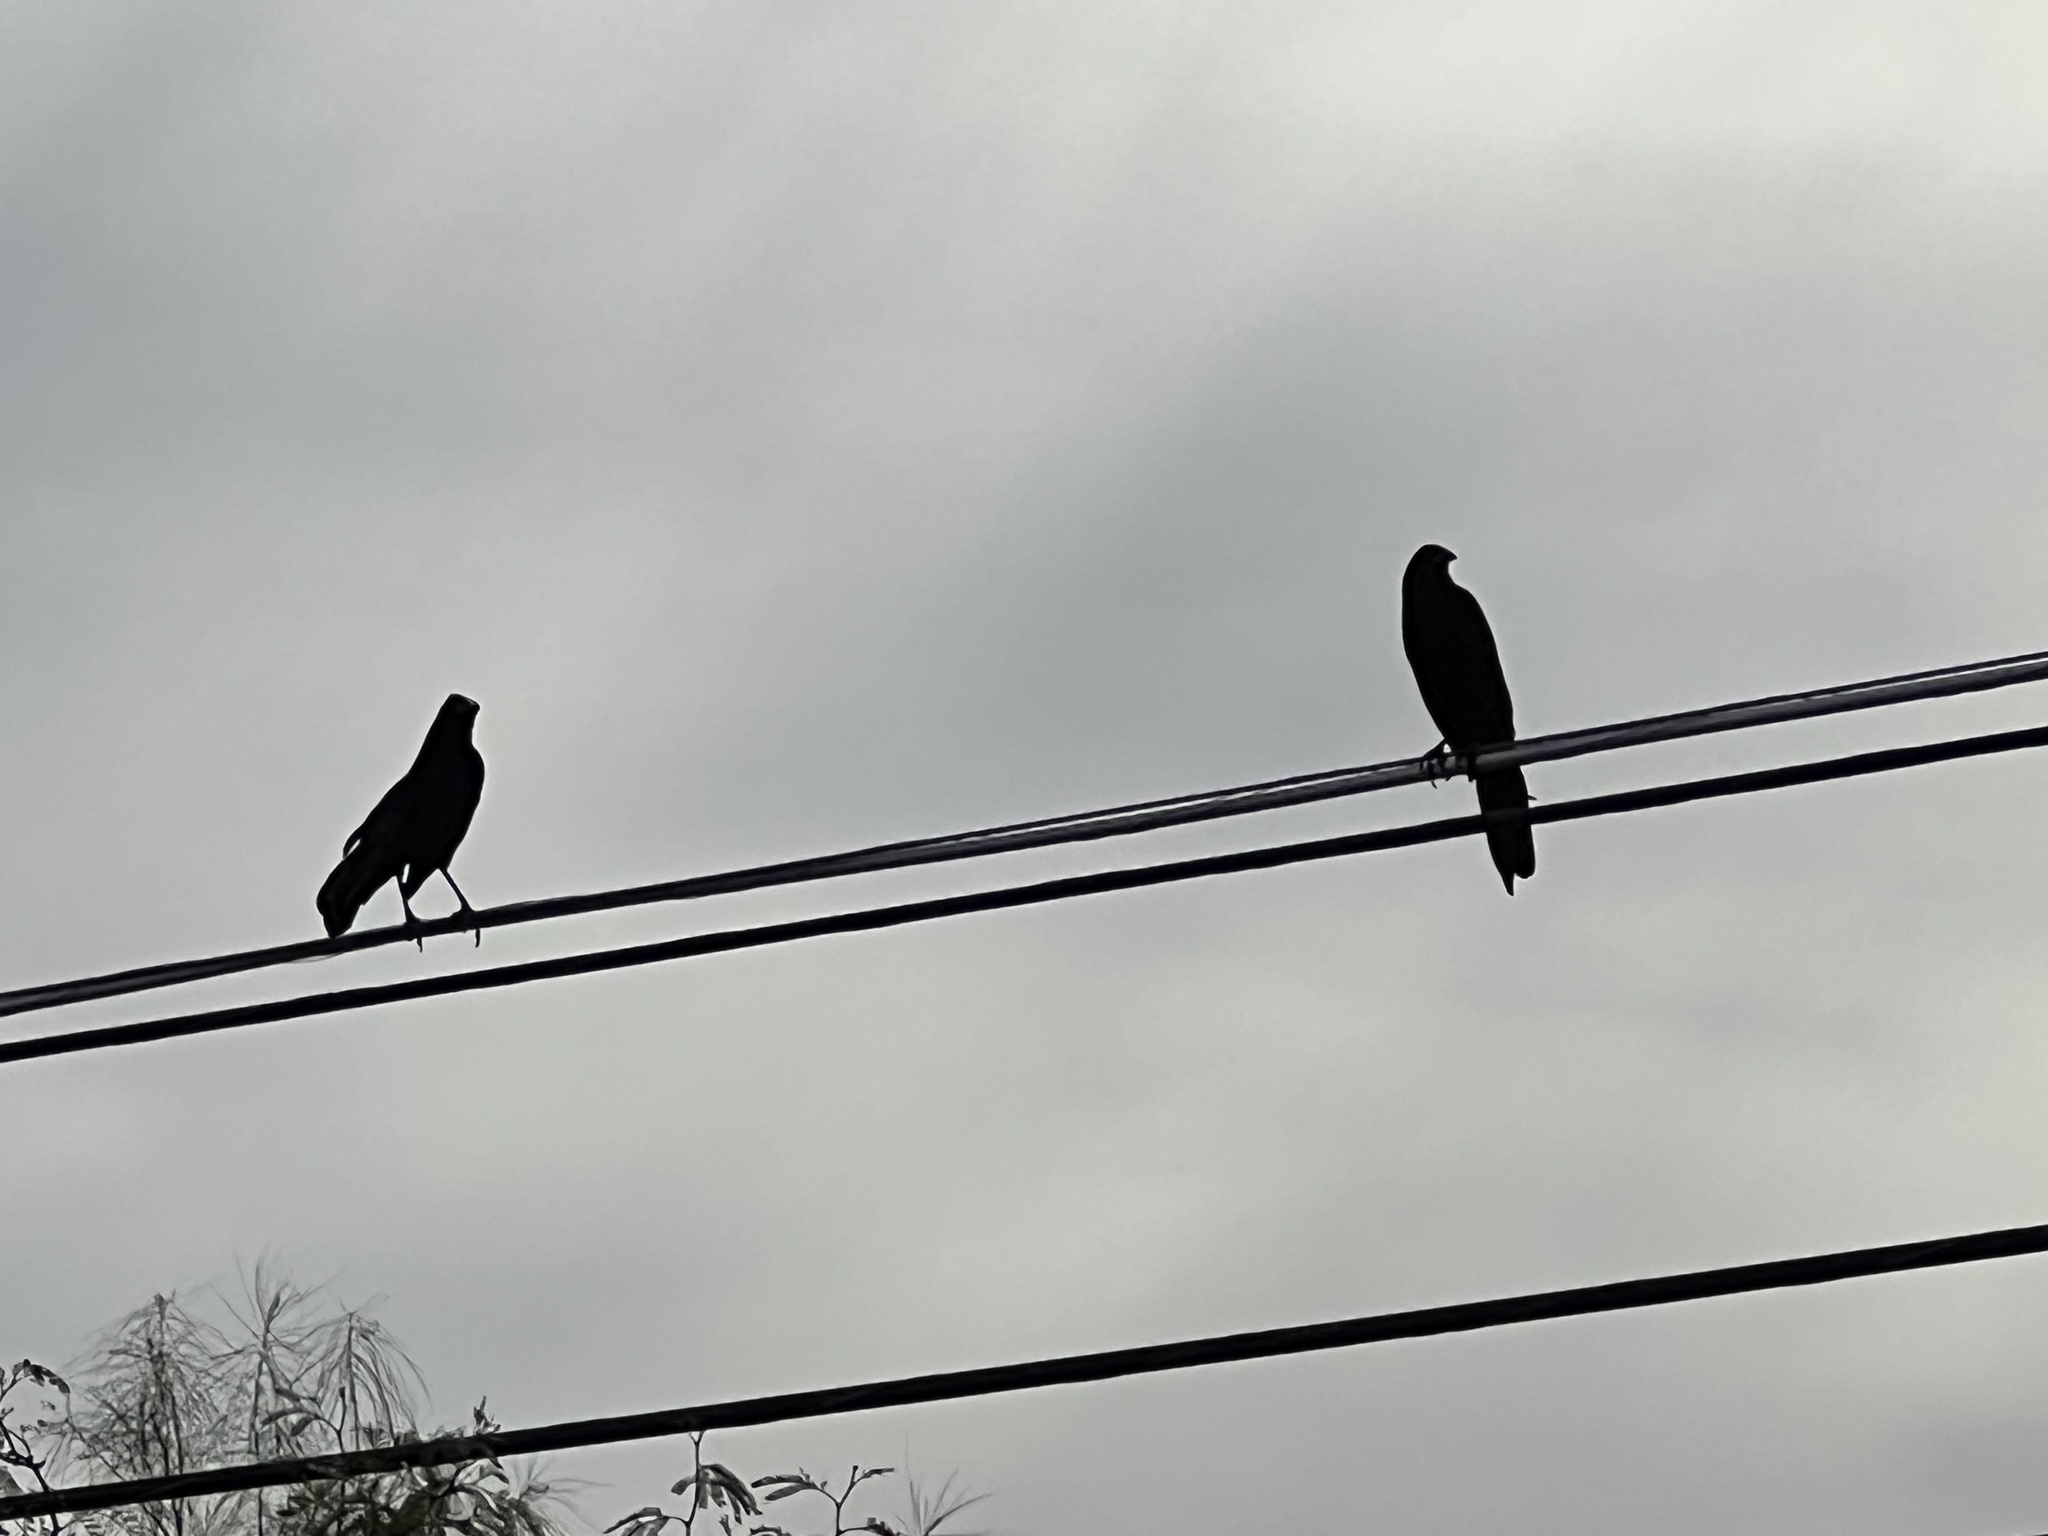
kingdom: Animalia
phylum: Chordata
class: Aves
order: Passeriformes
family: Icteridae
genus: Quiscalus
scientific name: Quiscalus mexicanus
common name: Great-tailed grackle
